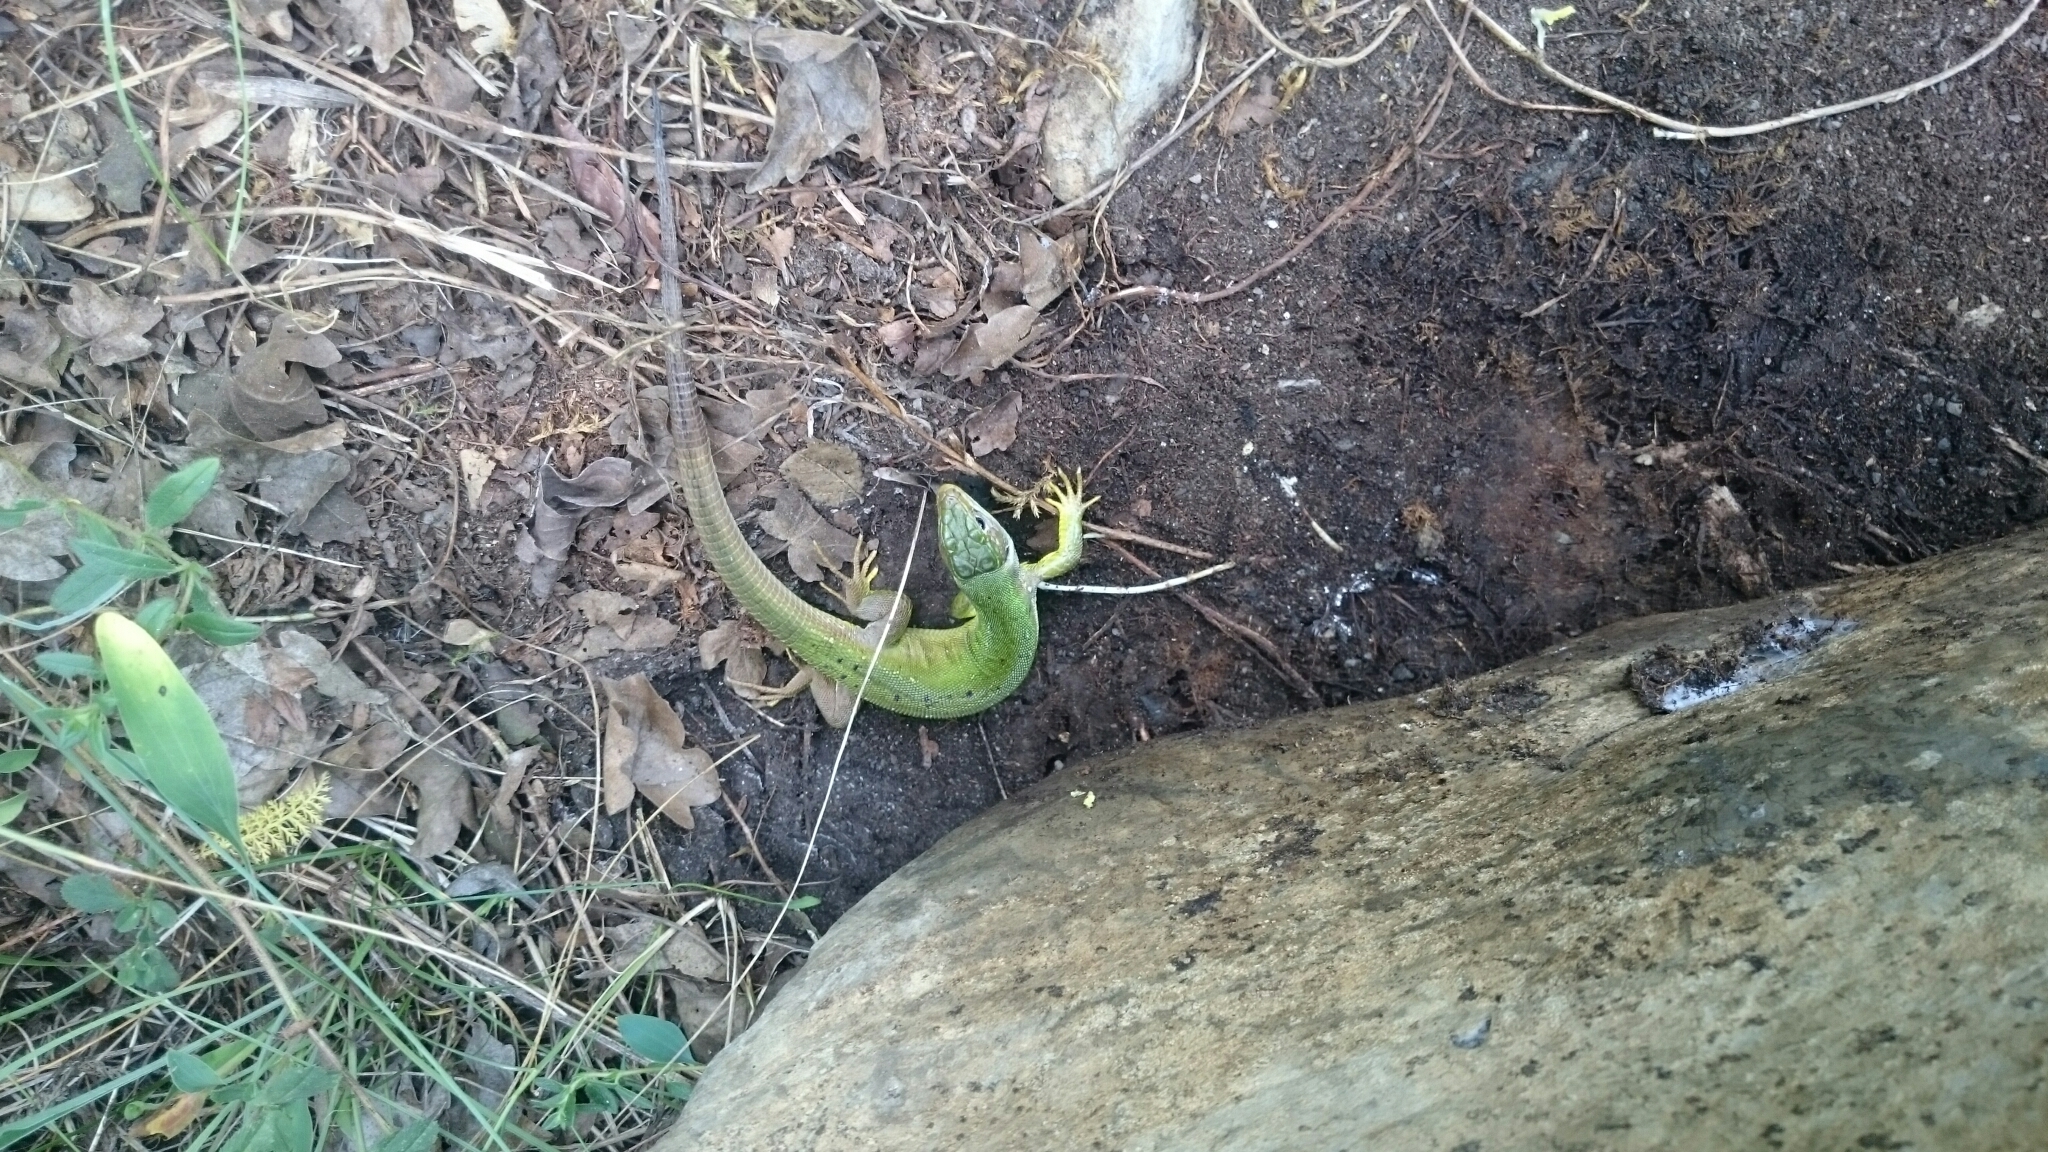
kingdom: Animalia
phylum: Chordata
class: Squamata
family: Lacertidae
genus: Lacerta
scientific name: Lacerta bilineata
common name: Western green lizard
